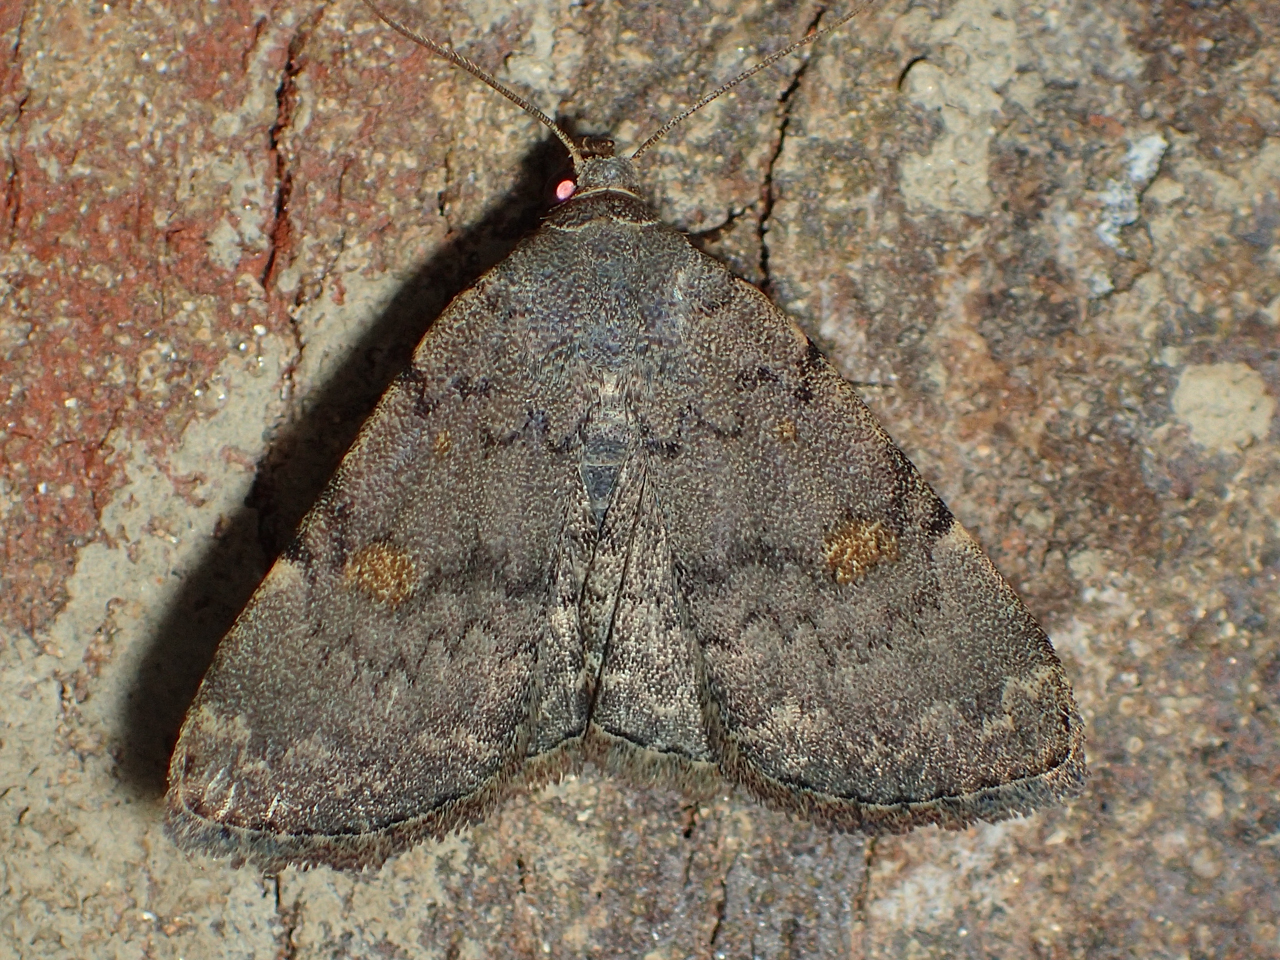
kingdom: Animalia
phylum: Arthropoda
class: Insecta
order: Lepidoptera
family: Erebidae
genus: Idia
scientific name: Idia aemula
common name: Common idia moth
